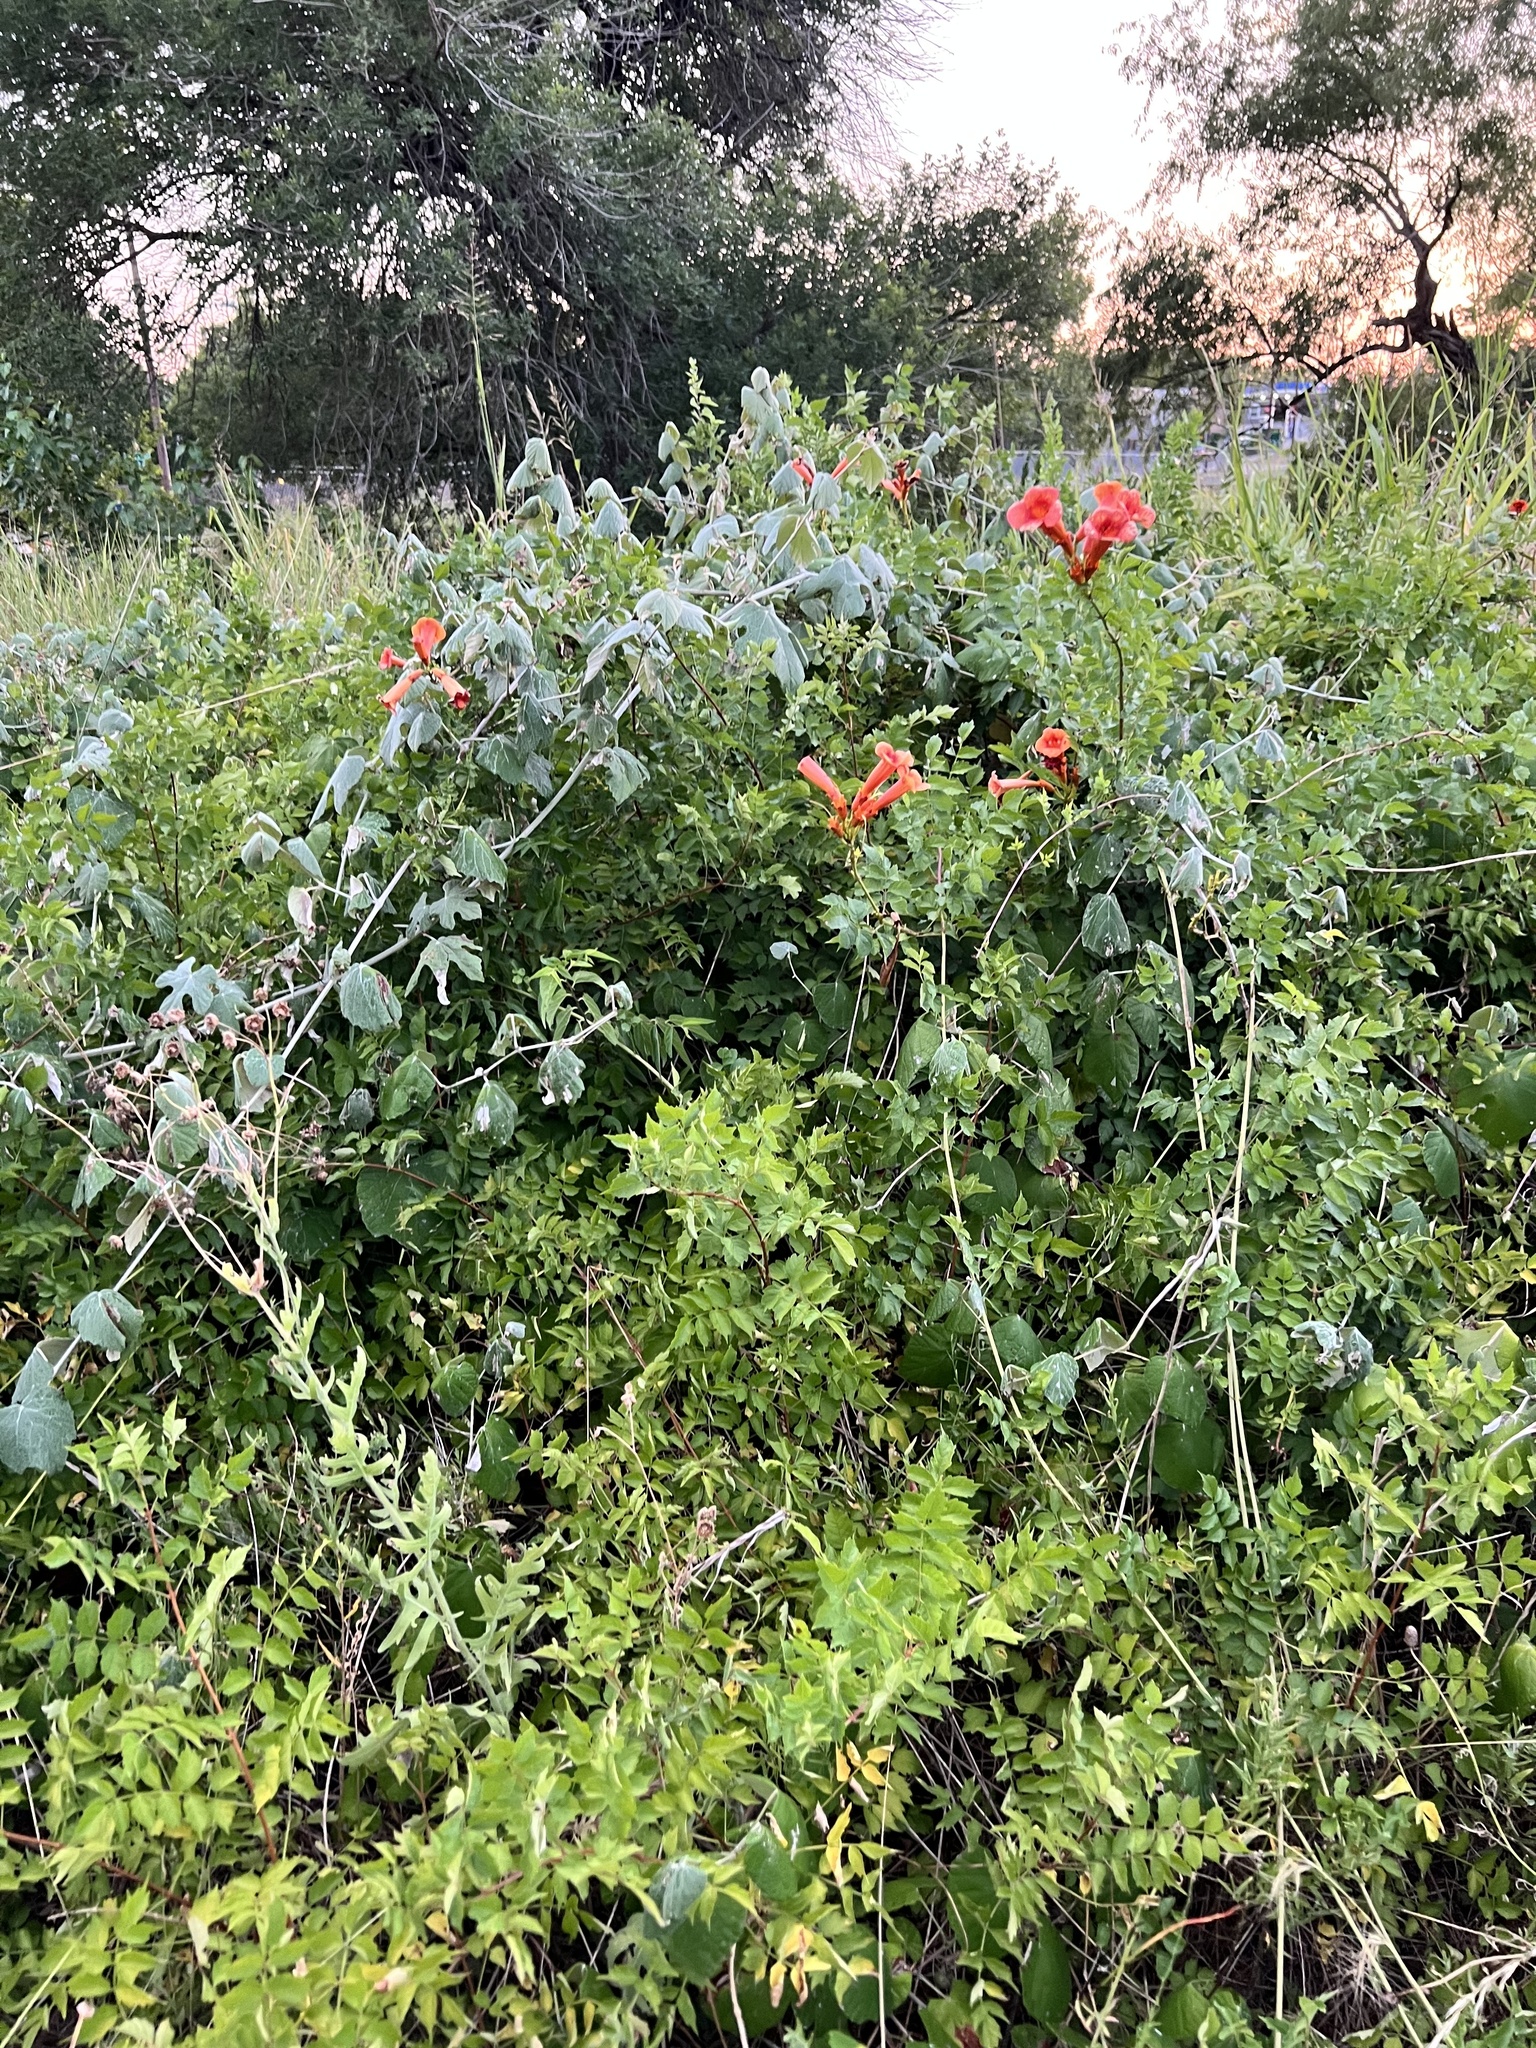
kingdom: Plantae
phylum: Tracheophyta
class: Magnoliopsida
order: Lamiales
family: Bignoniaceae
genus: Campsis
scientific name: Campsis radicans
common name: Trumpet-creeper
